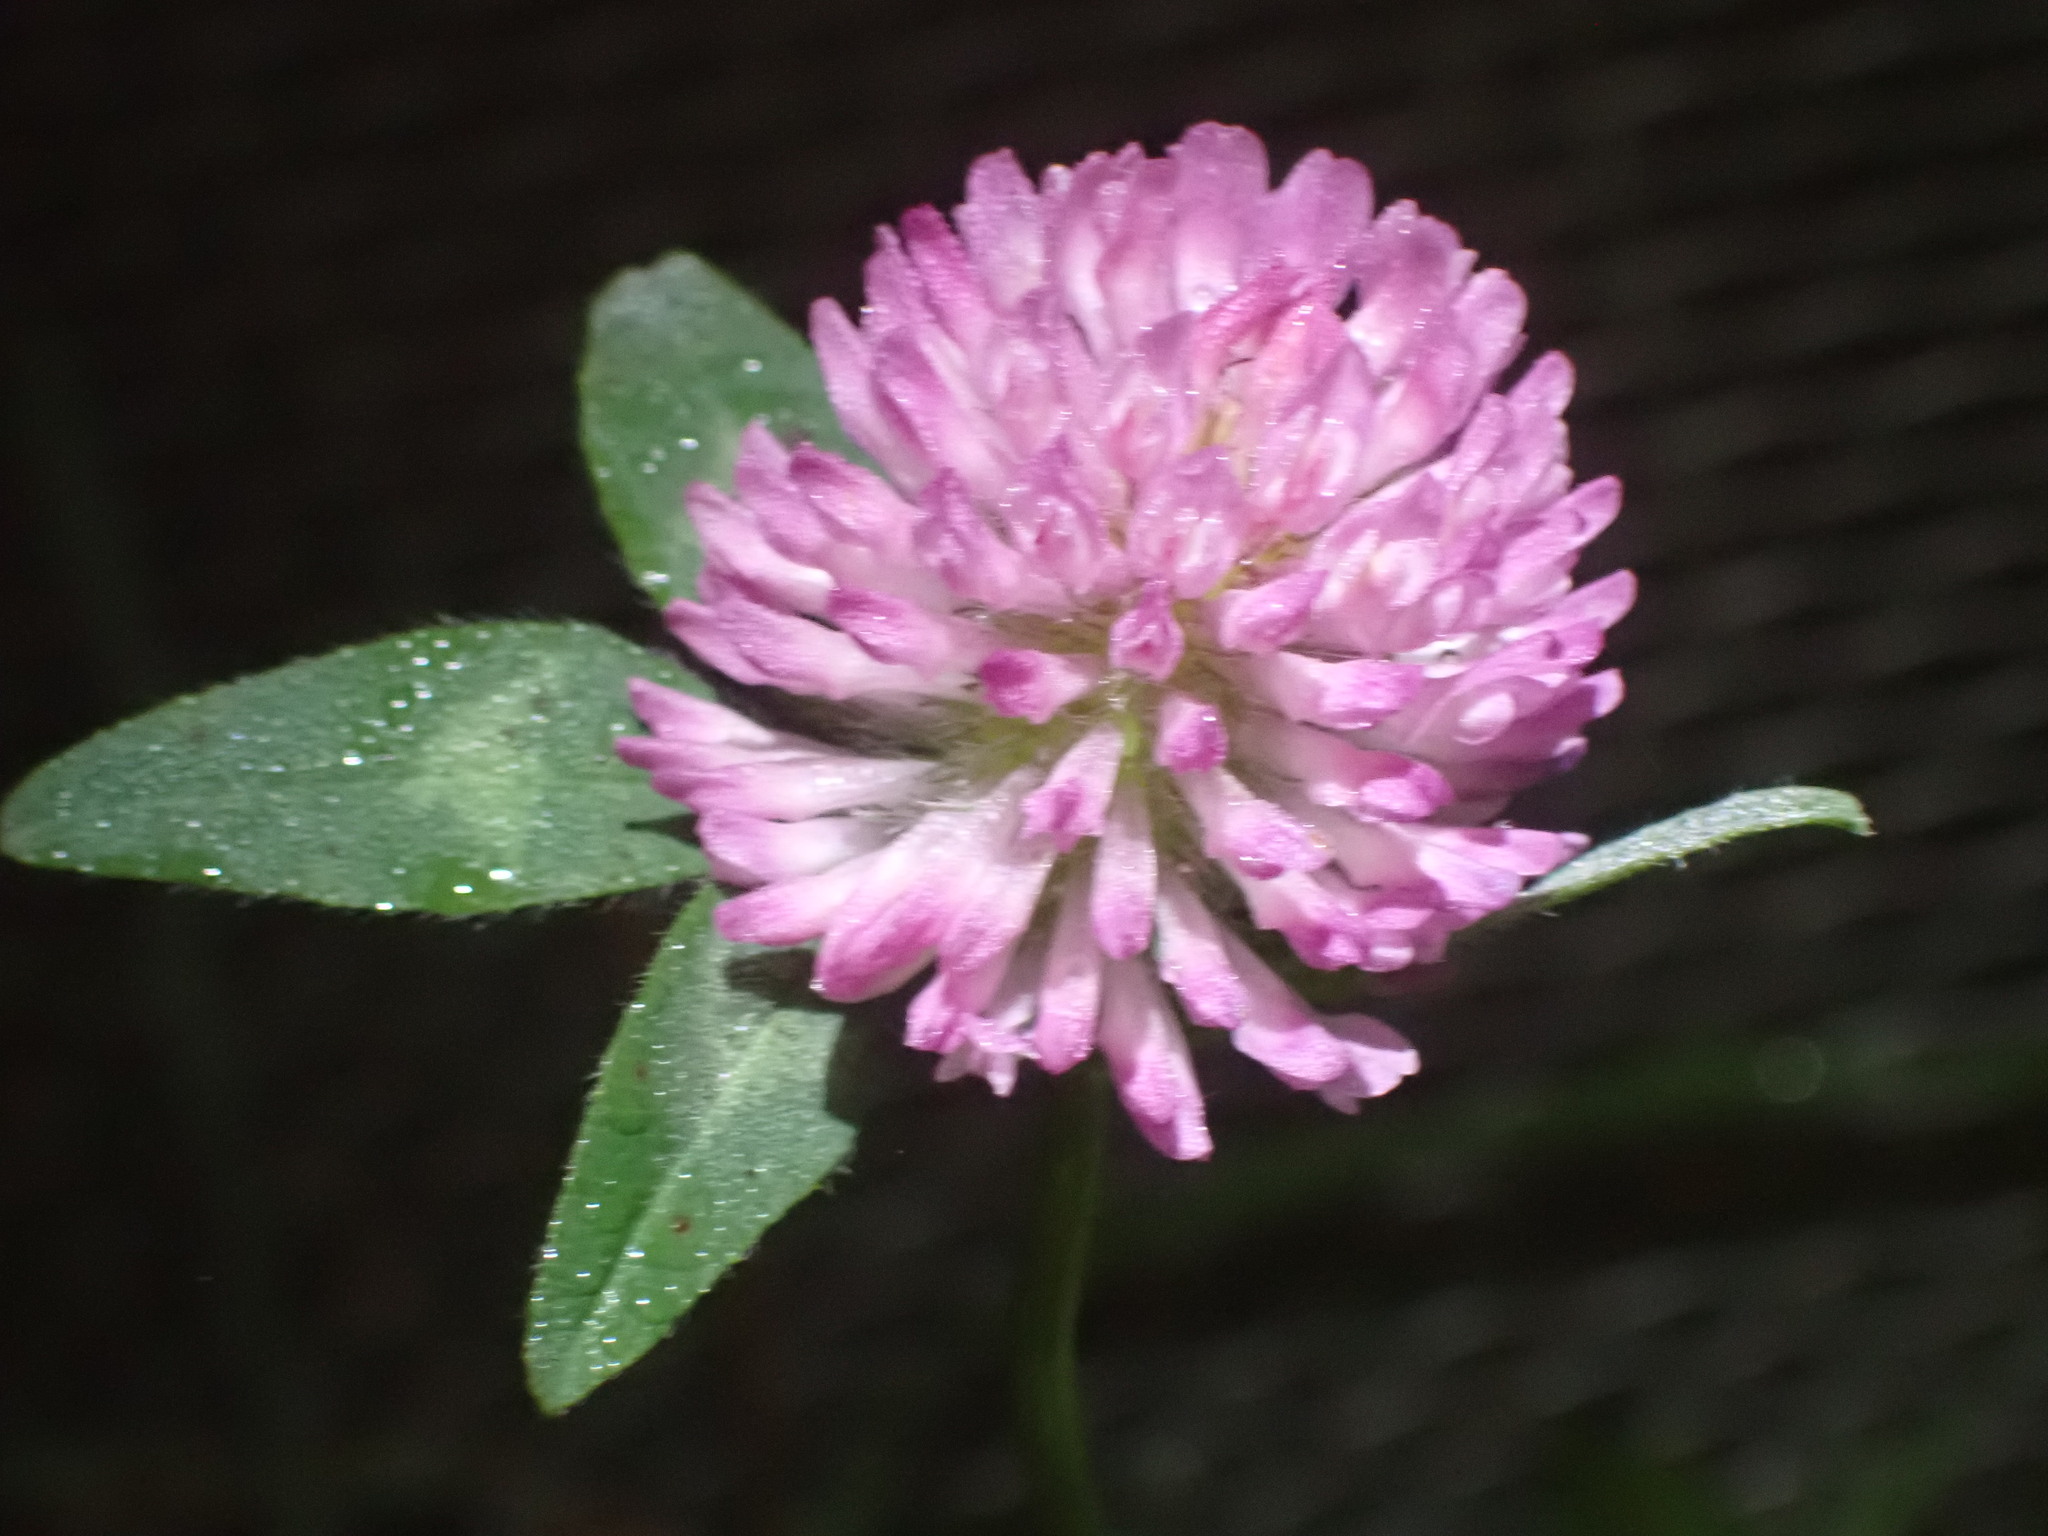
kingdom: Plantae
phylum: Tracheophyta
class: Magnoliopsida
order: Fabales
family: Fabaceae
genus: Trifolium
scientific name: Trifolium pratense
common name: Red clover
